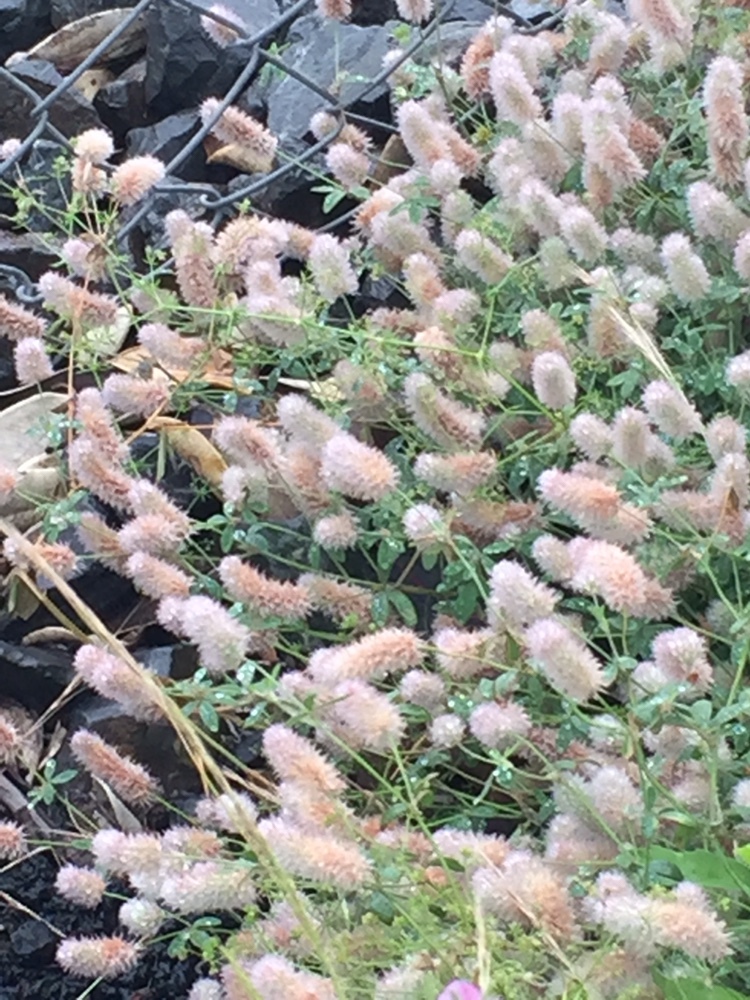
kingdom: Plantae
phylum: Tracheophyta
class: Magnoliopsida
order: Fabales
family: Fabaceae
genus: Trifolium
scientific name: Trifolium arvense
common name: Hare's-foot clover
